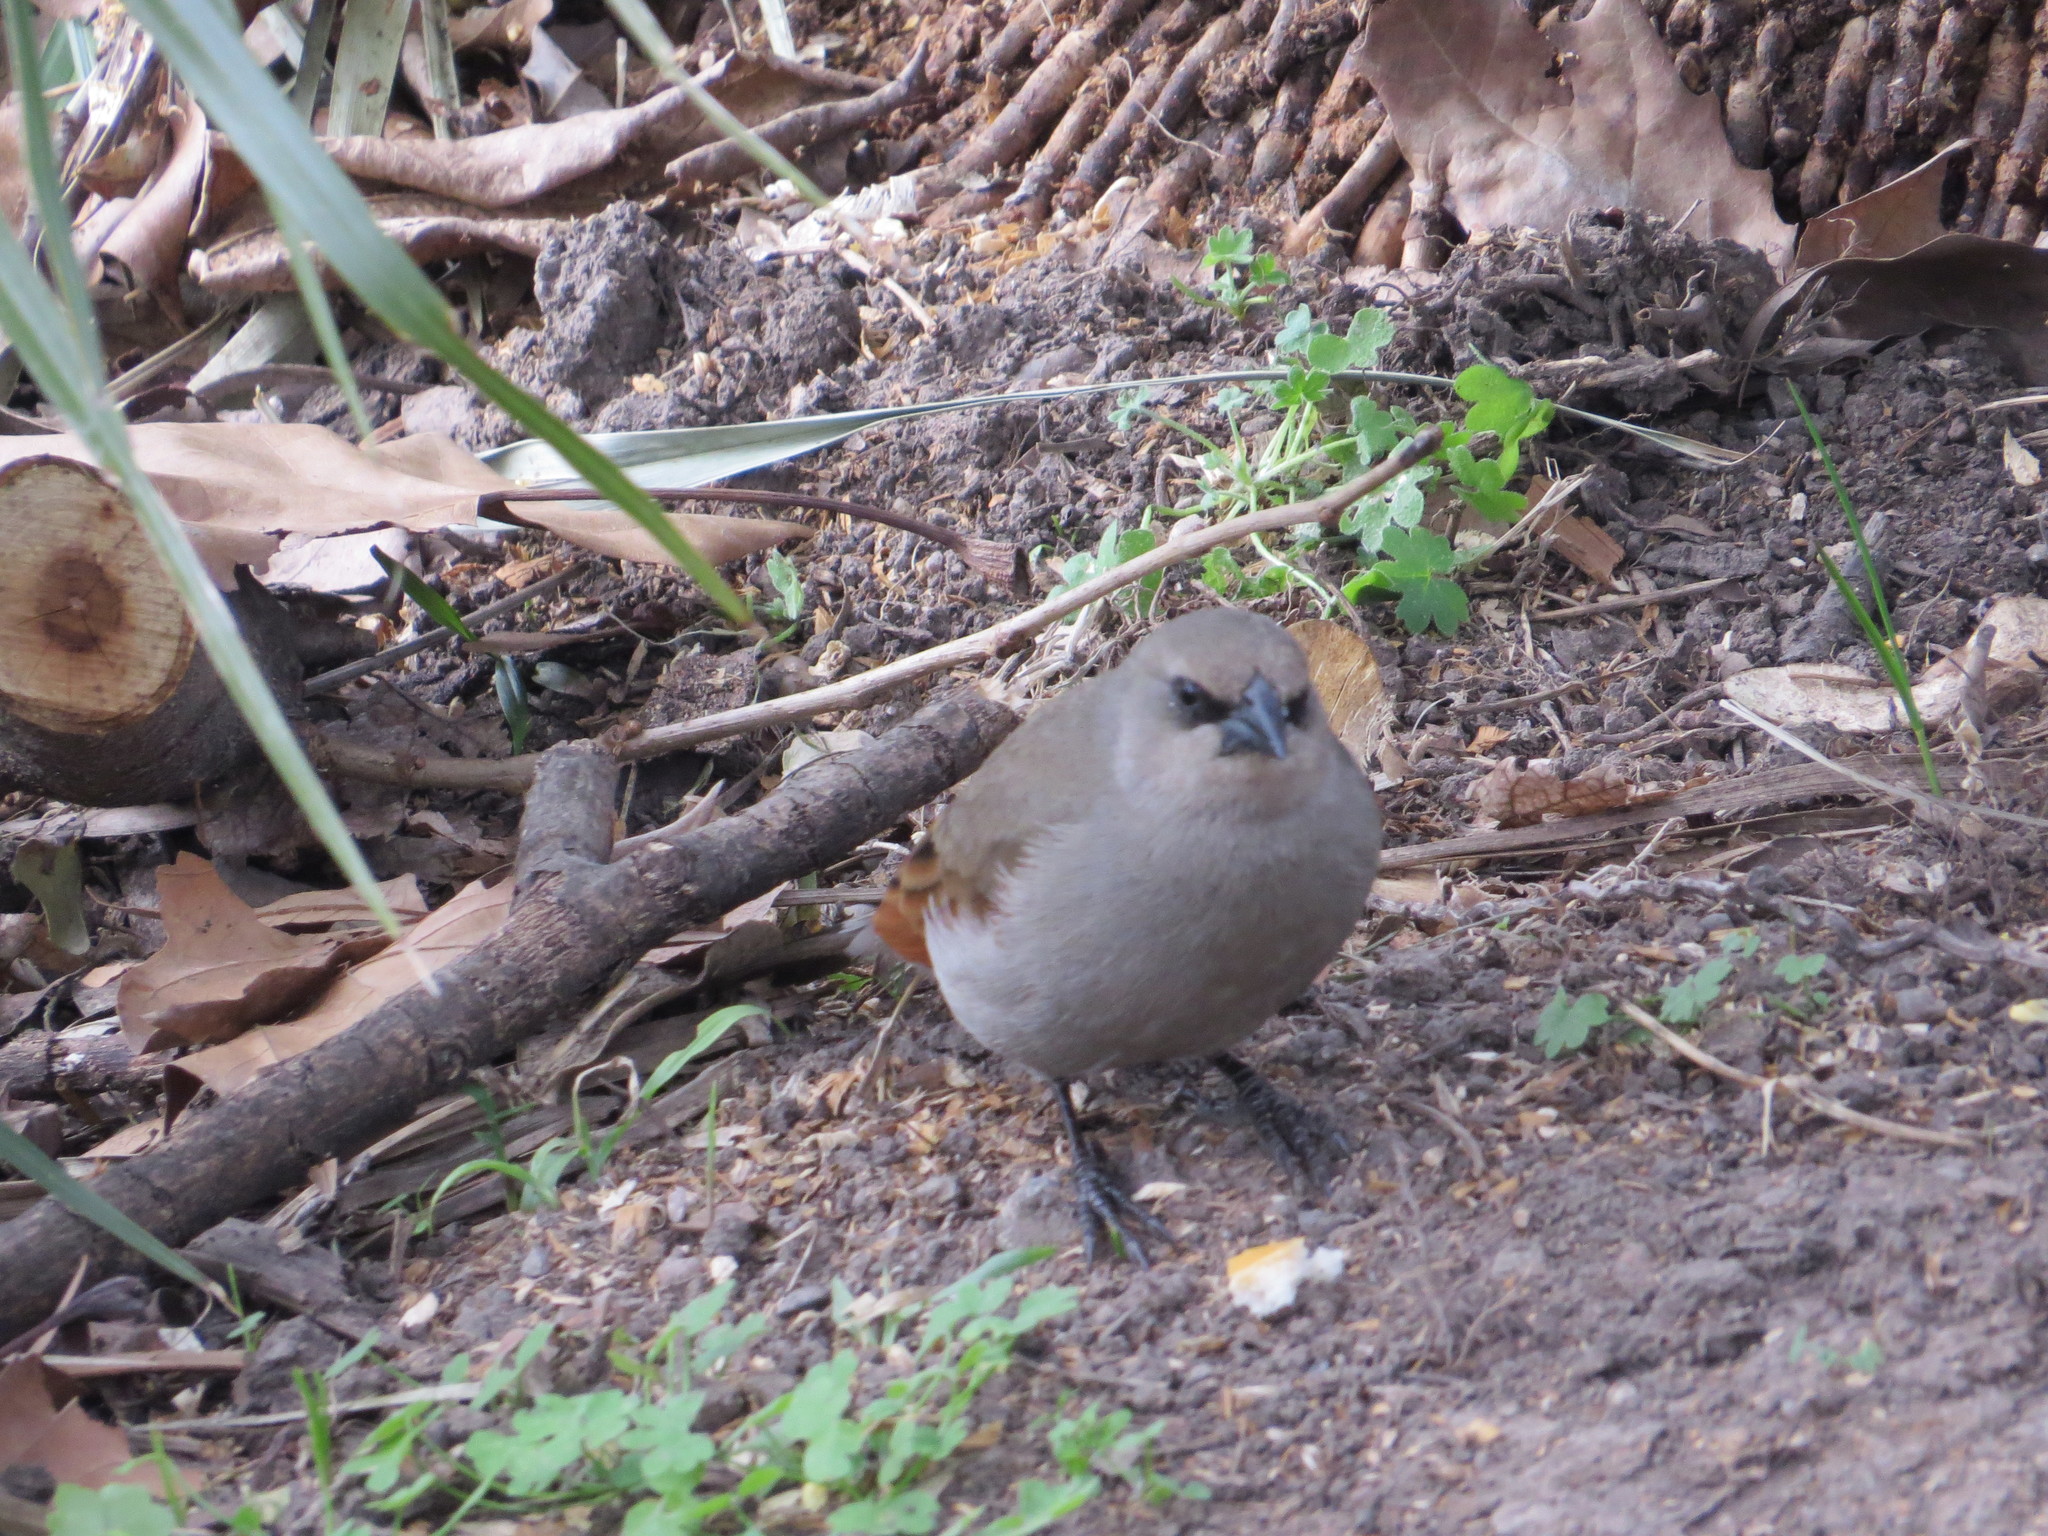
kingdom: Animalia
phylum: Chordata
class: Aves
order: Passeriformes
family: Icteridae
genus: Agelaioides
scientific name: Agelaioides badius
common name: Baywing
